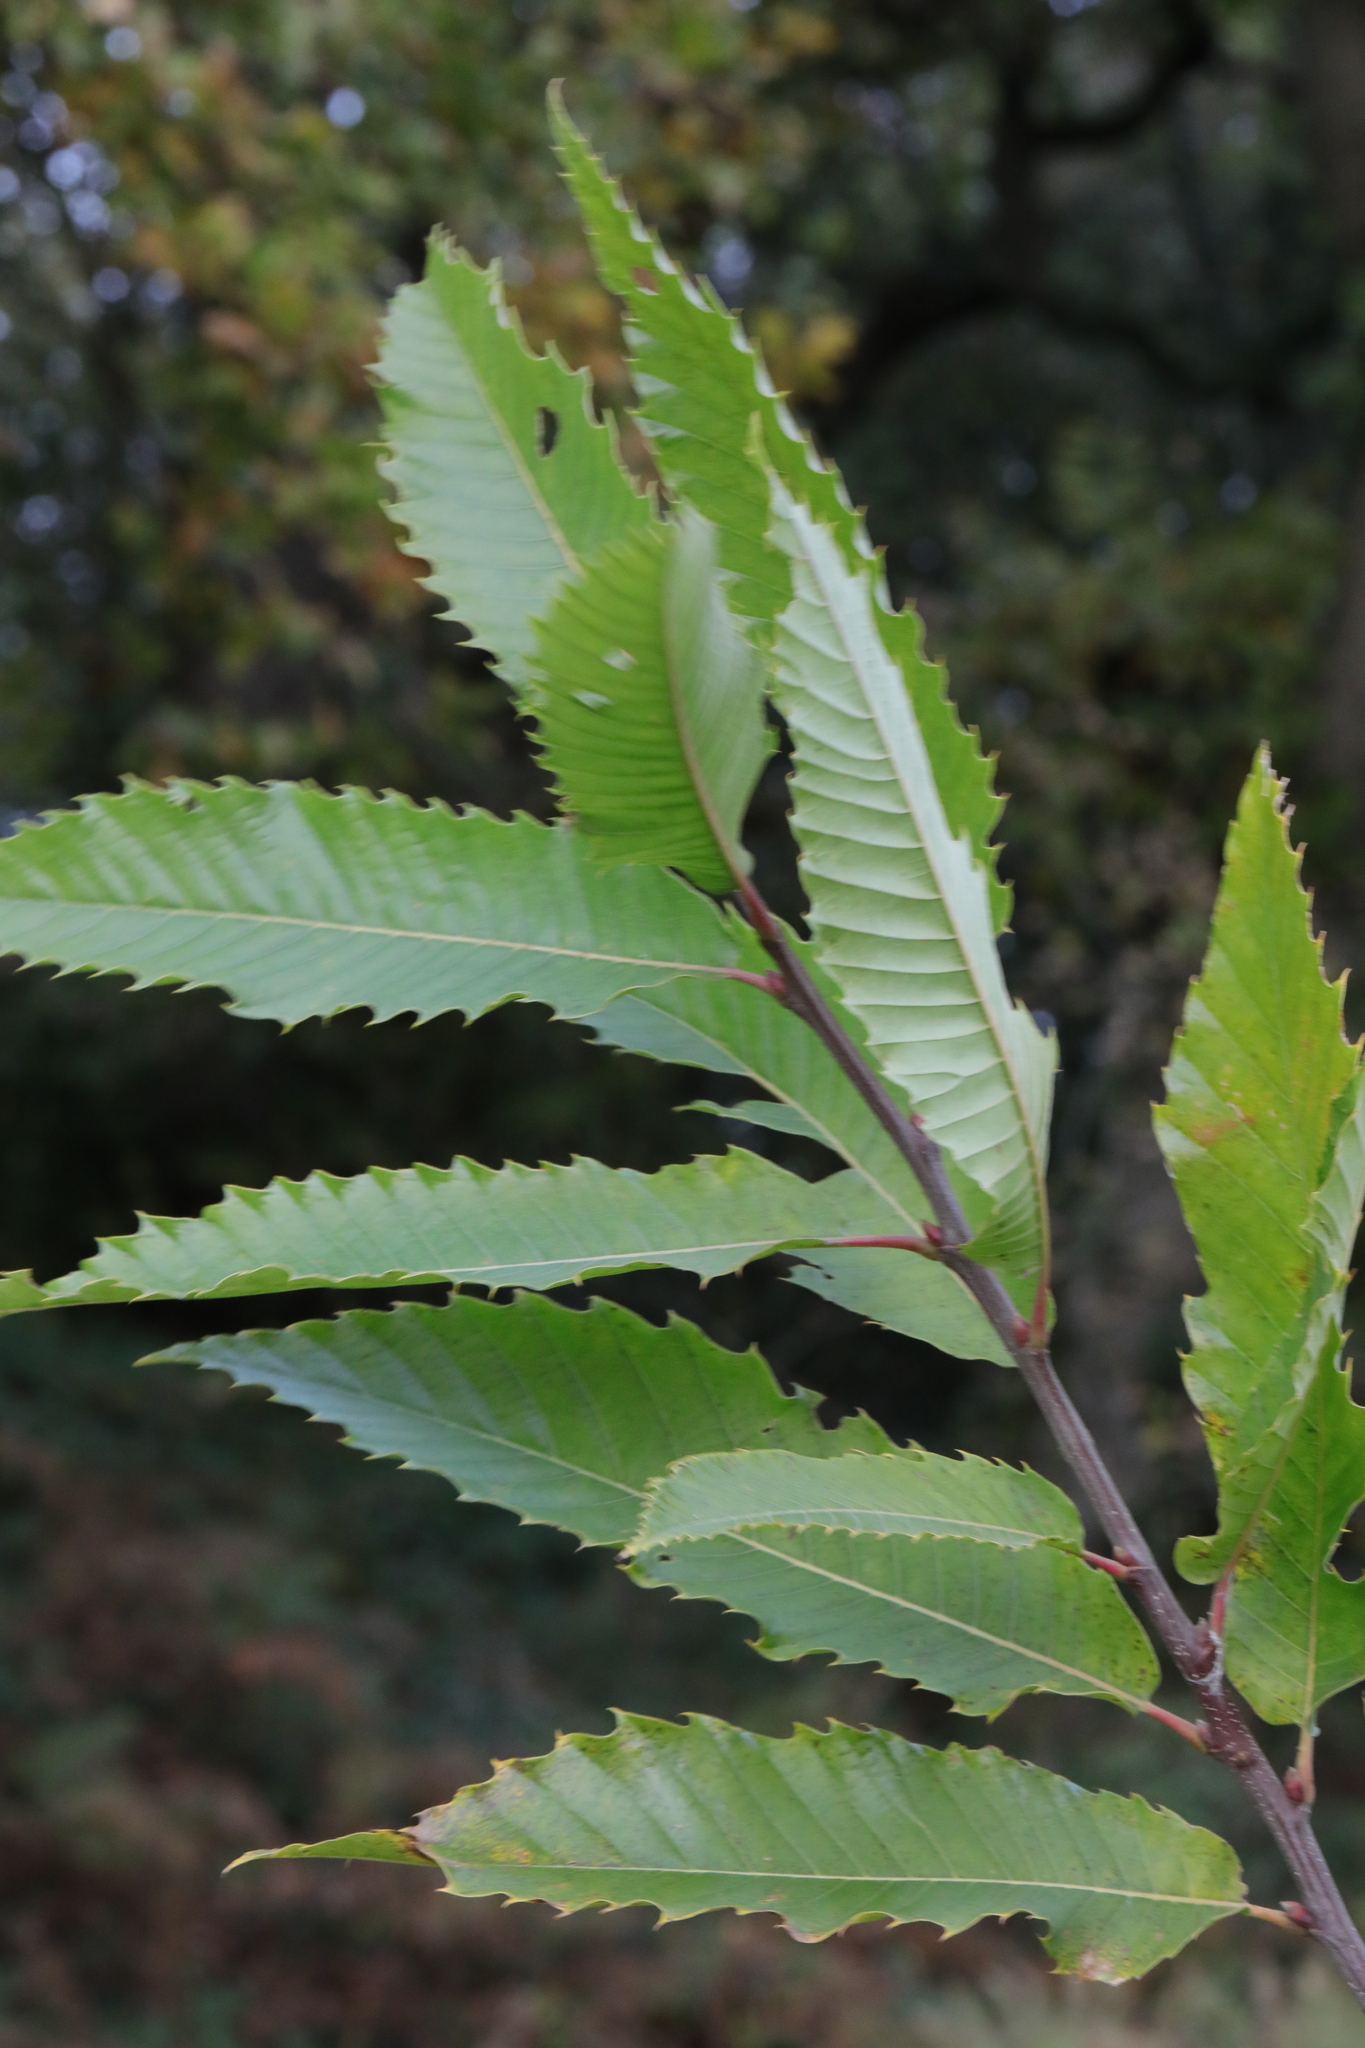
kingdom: Plantae
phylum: Tracheophyta
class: Magnoliopsida
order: Fagales
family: Fagaceae
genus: Castanea
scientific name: Castanea sativa
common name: Sweet chestnut
